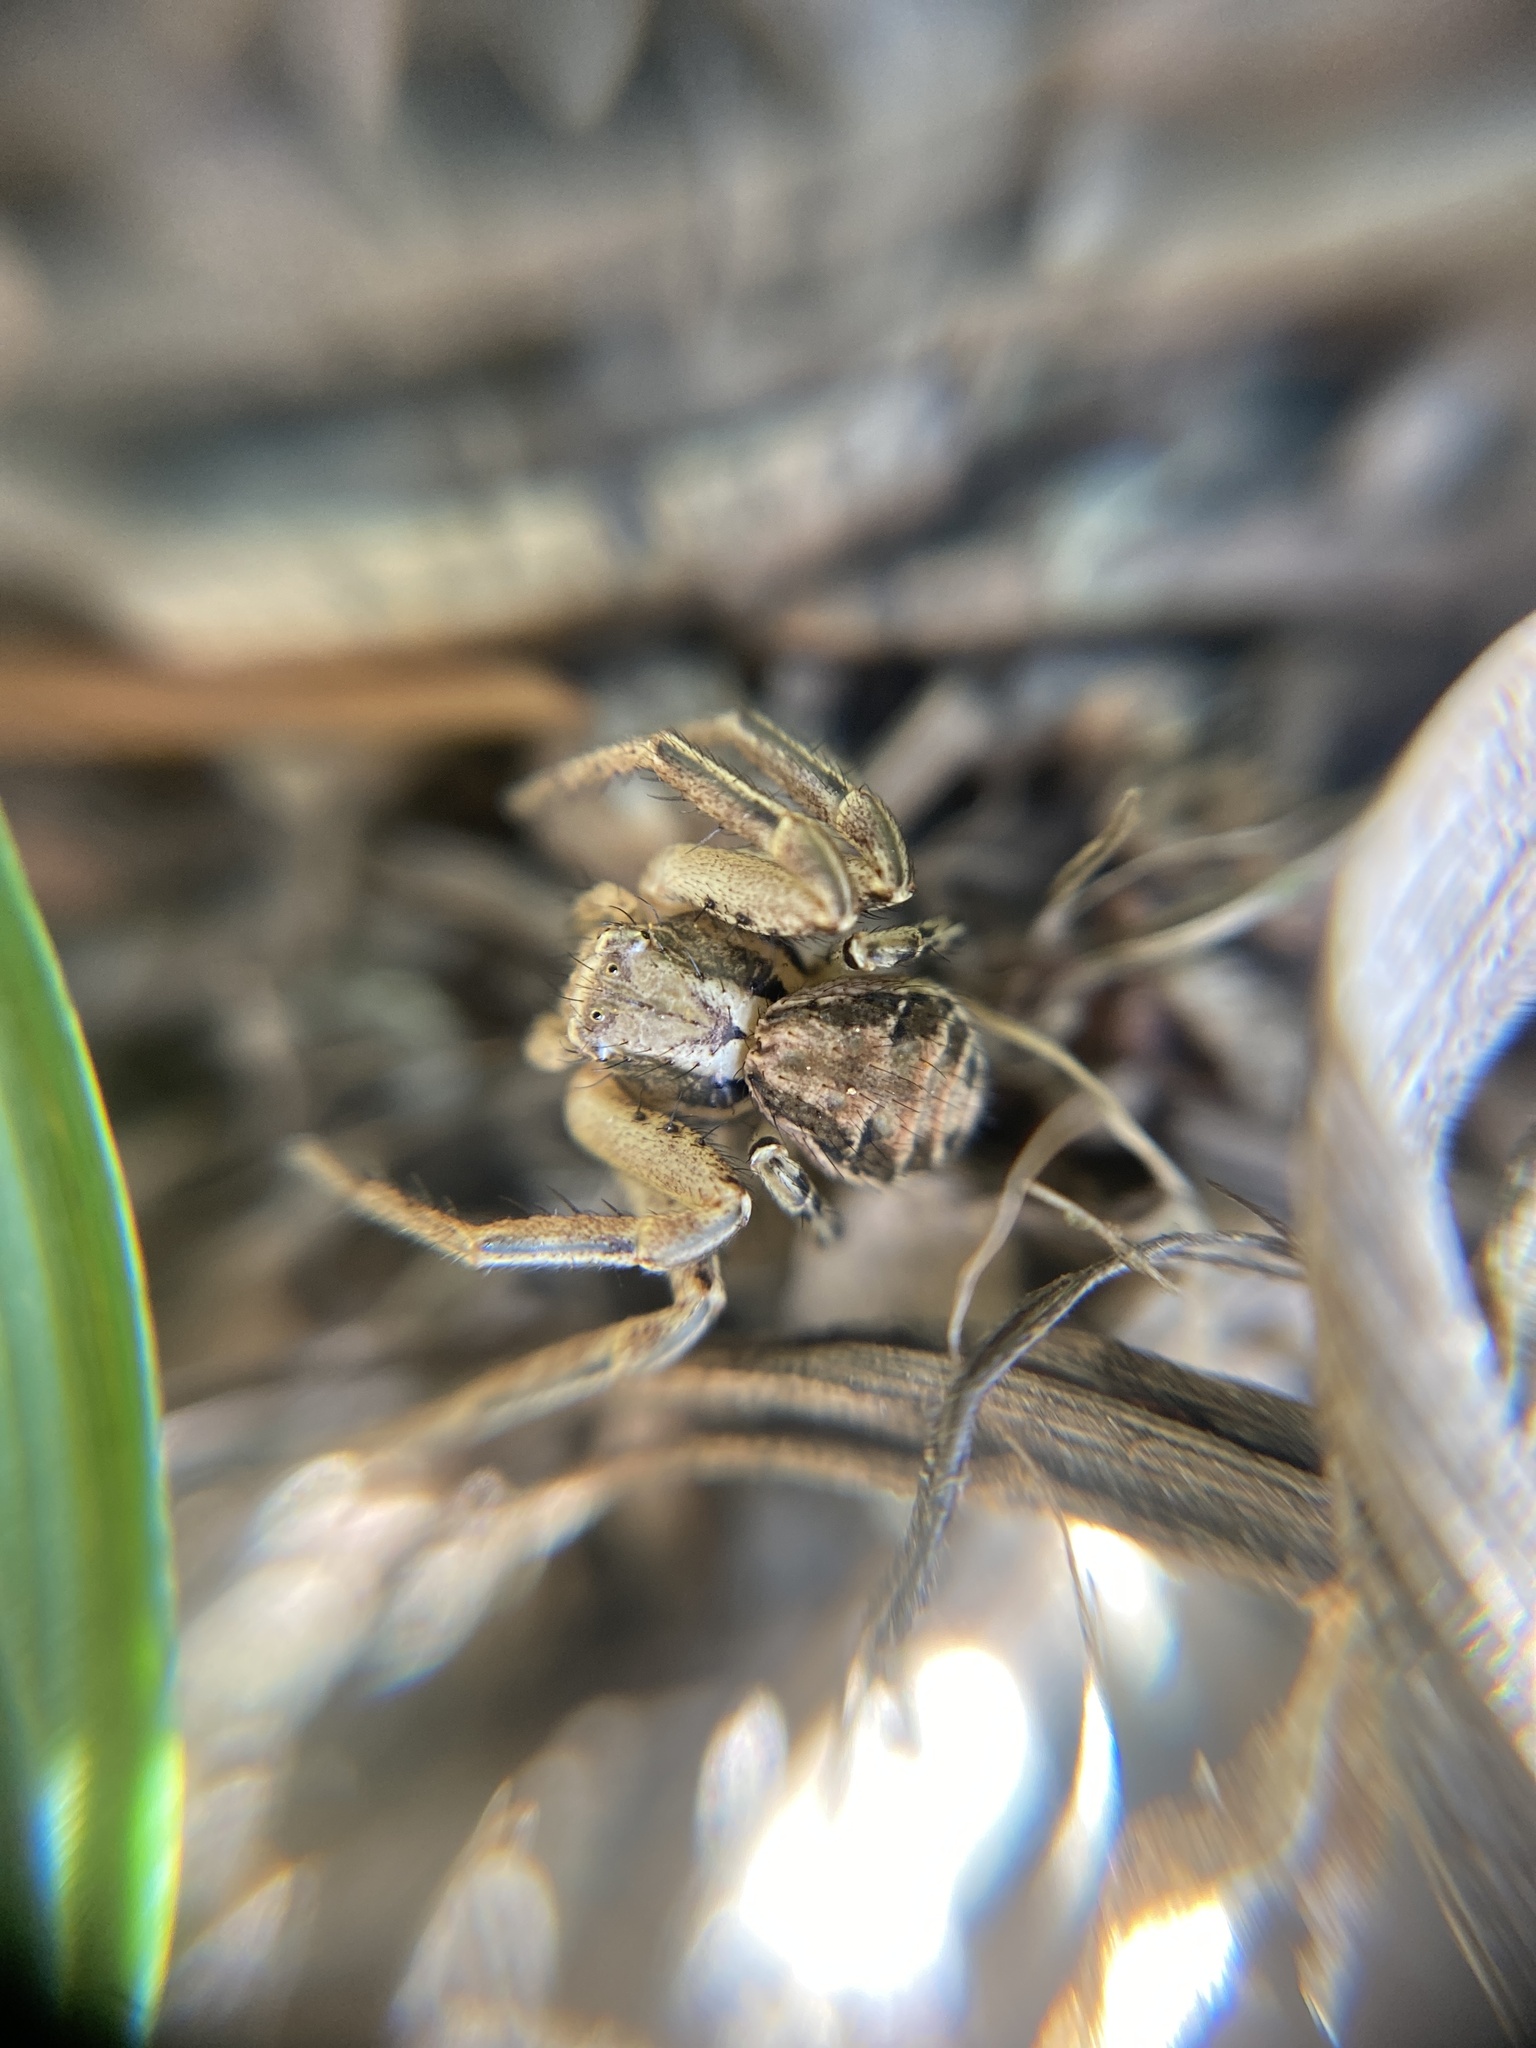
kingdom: Animalia
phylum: Arthropoda
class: Arachnida
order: Araneae
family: Thomisidae
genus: Xysticus
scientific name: Xysticus
